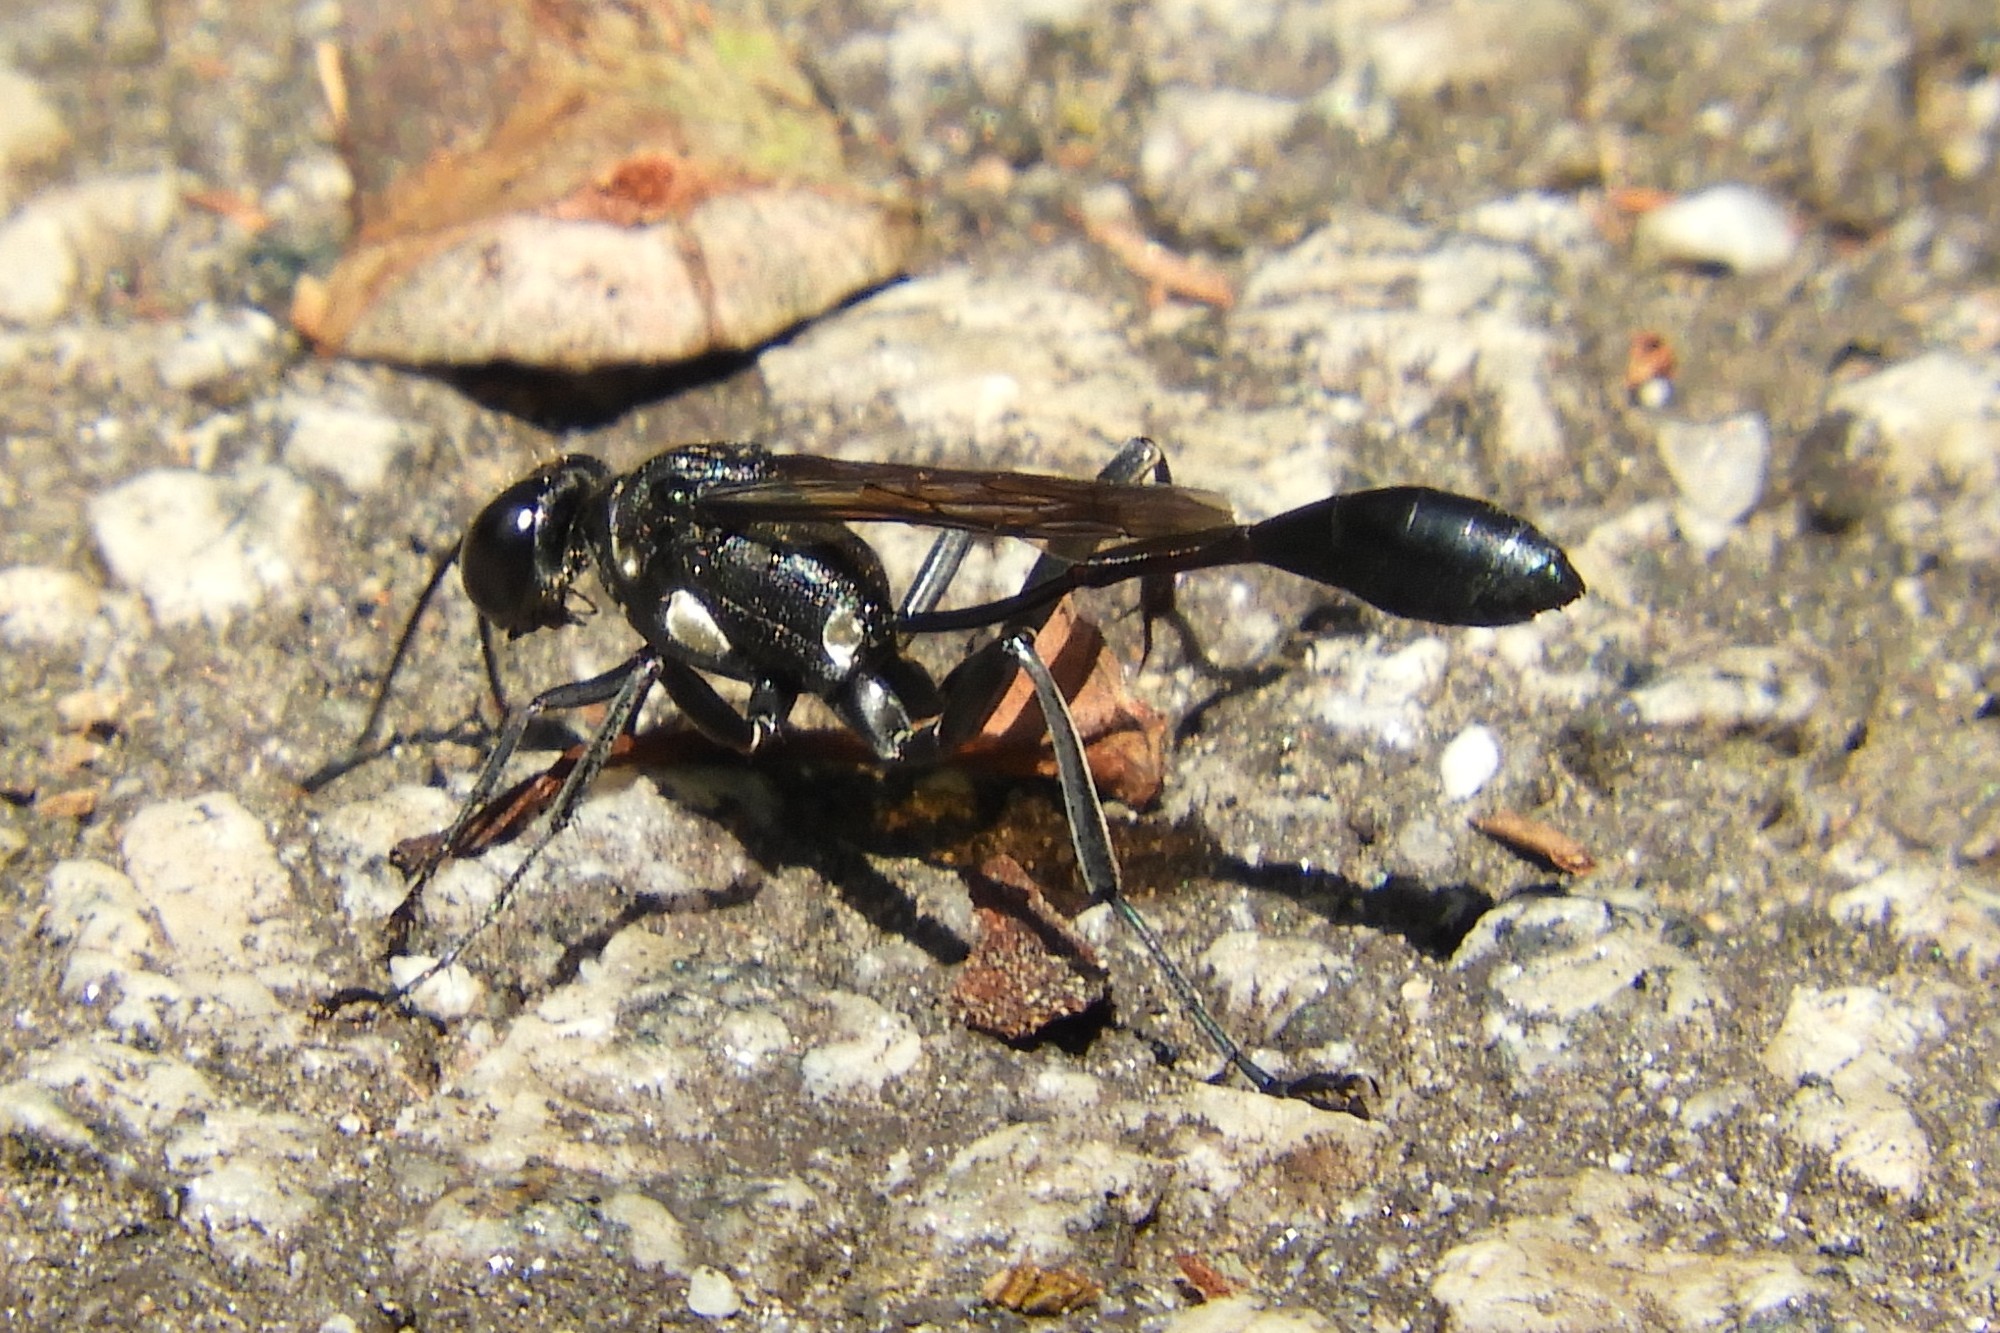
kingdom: Animalia
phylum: Arthropoda
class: Insecta
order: Hymenoptera
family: Sphecidae
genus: Eremnophila
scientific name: Eremnophila aureonotata
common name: Gold-marked thread-waisted wasp
